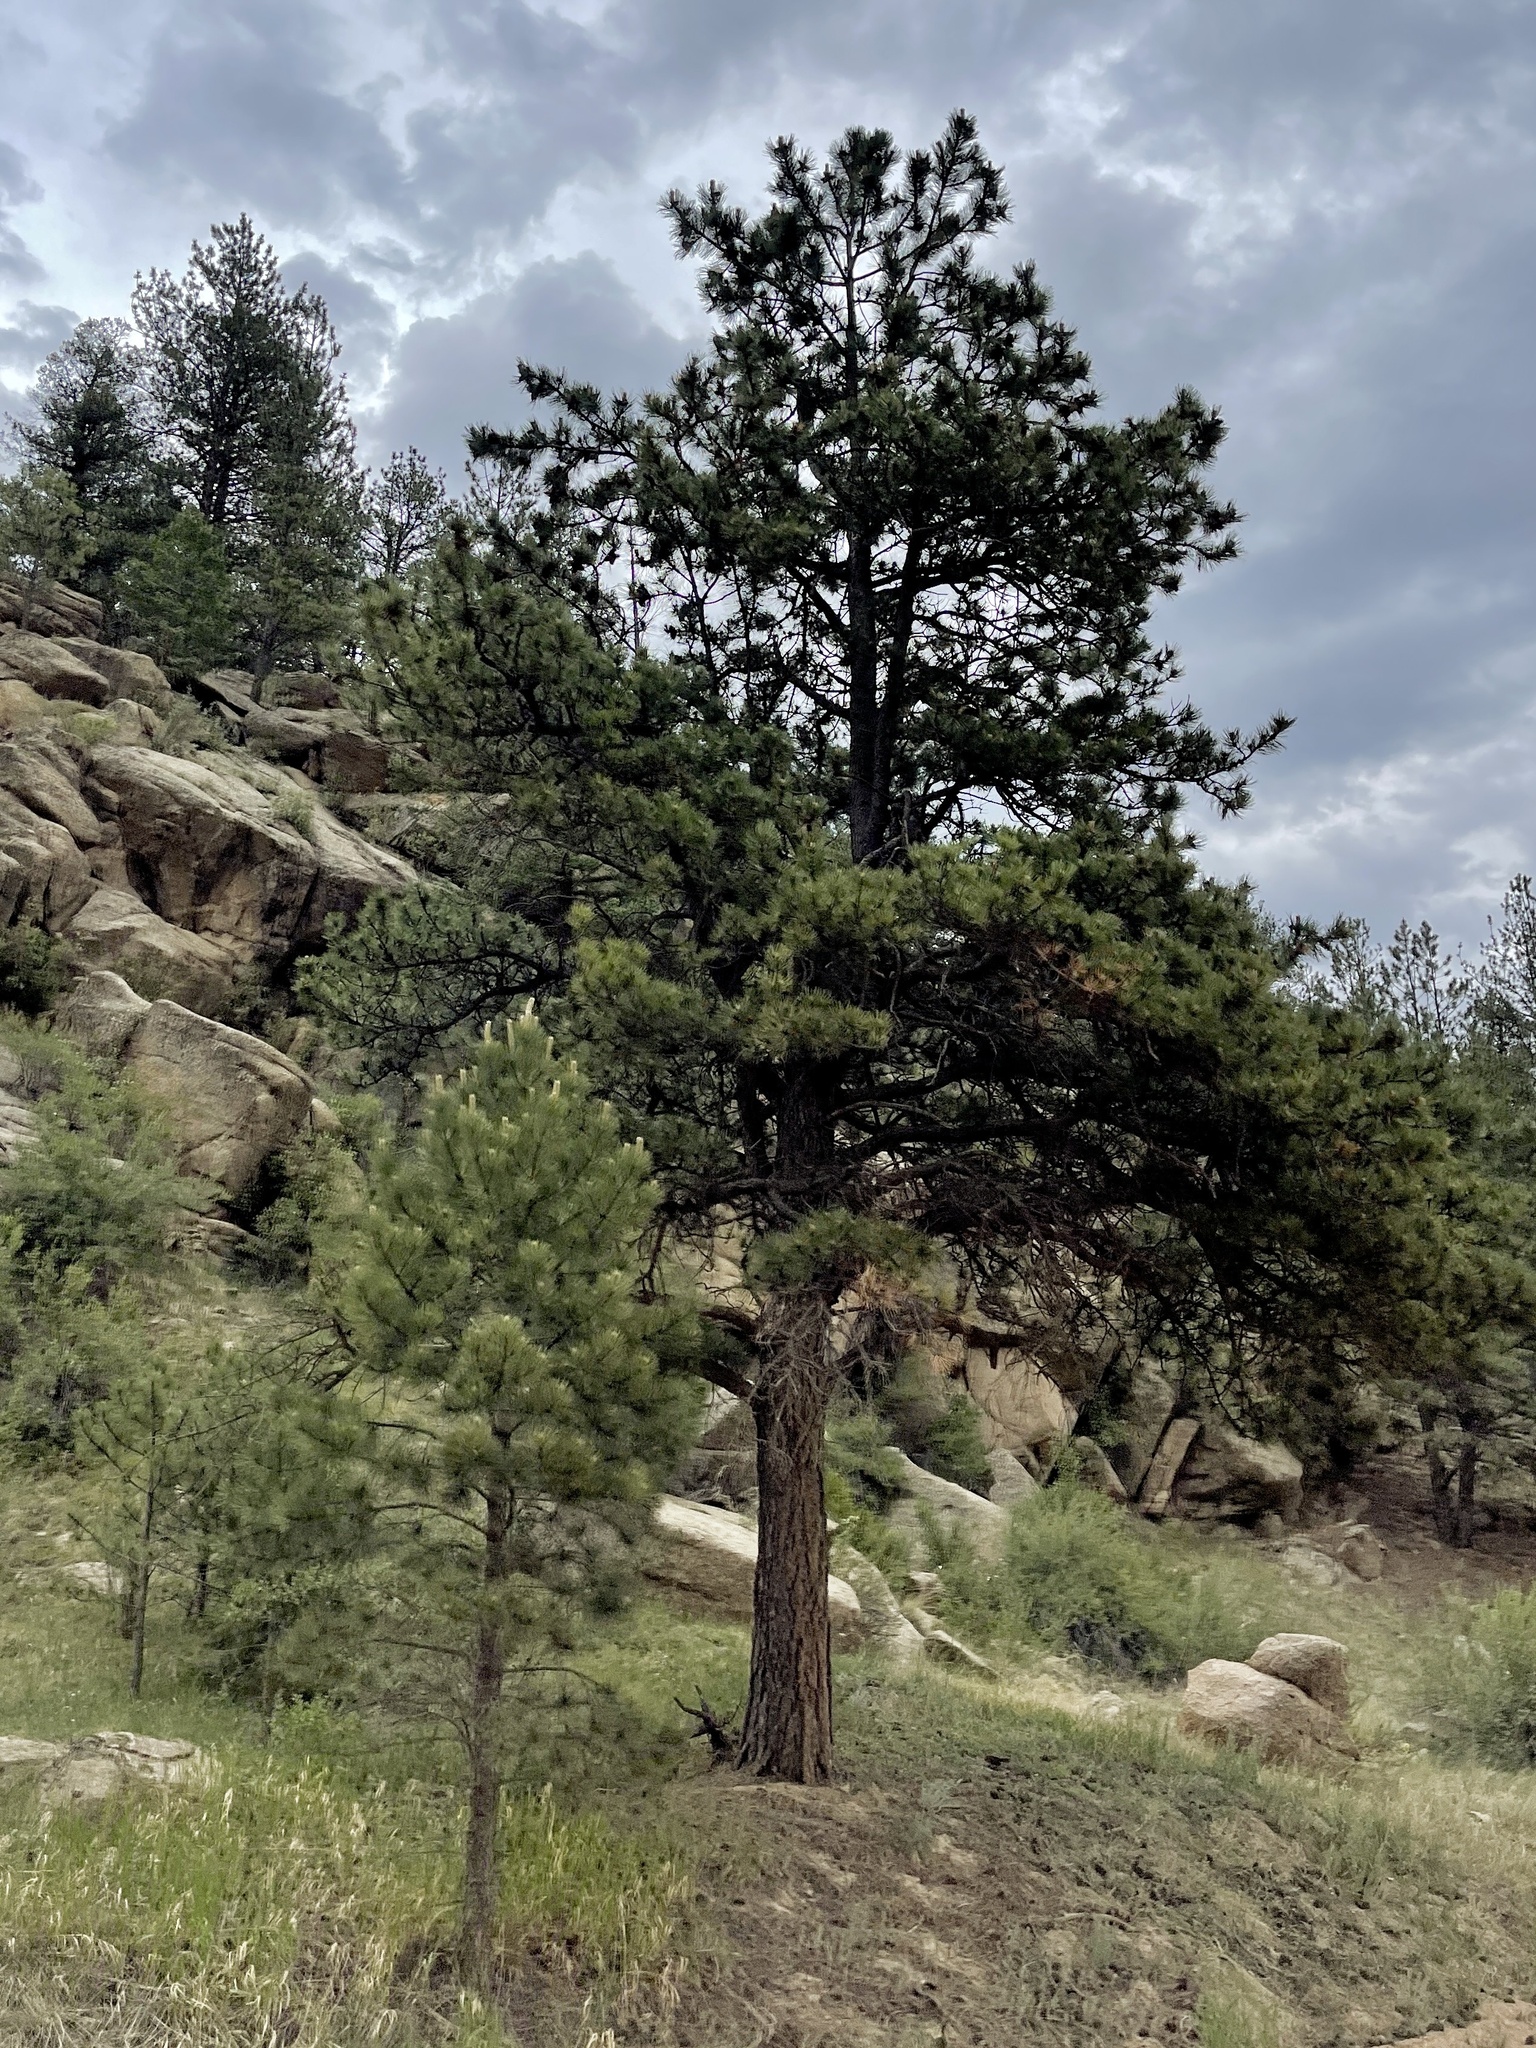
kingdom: Plantae
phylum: Tracheophyta
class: Pinopsida
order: Pinales
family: Pinaceae
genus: Pinus
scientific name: Pinus ponderosa
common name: Western yellow-pine
